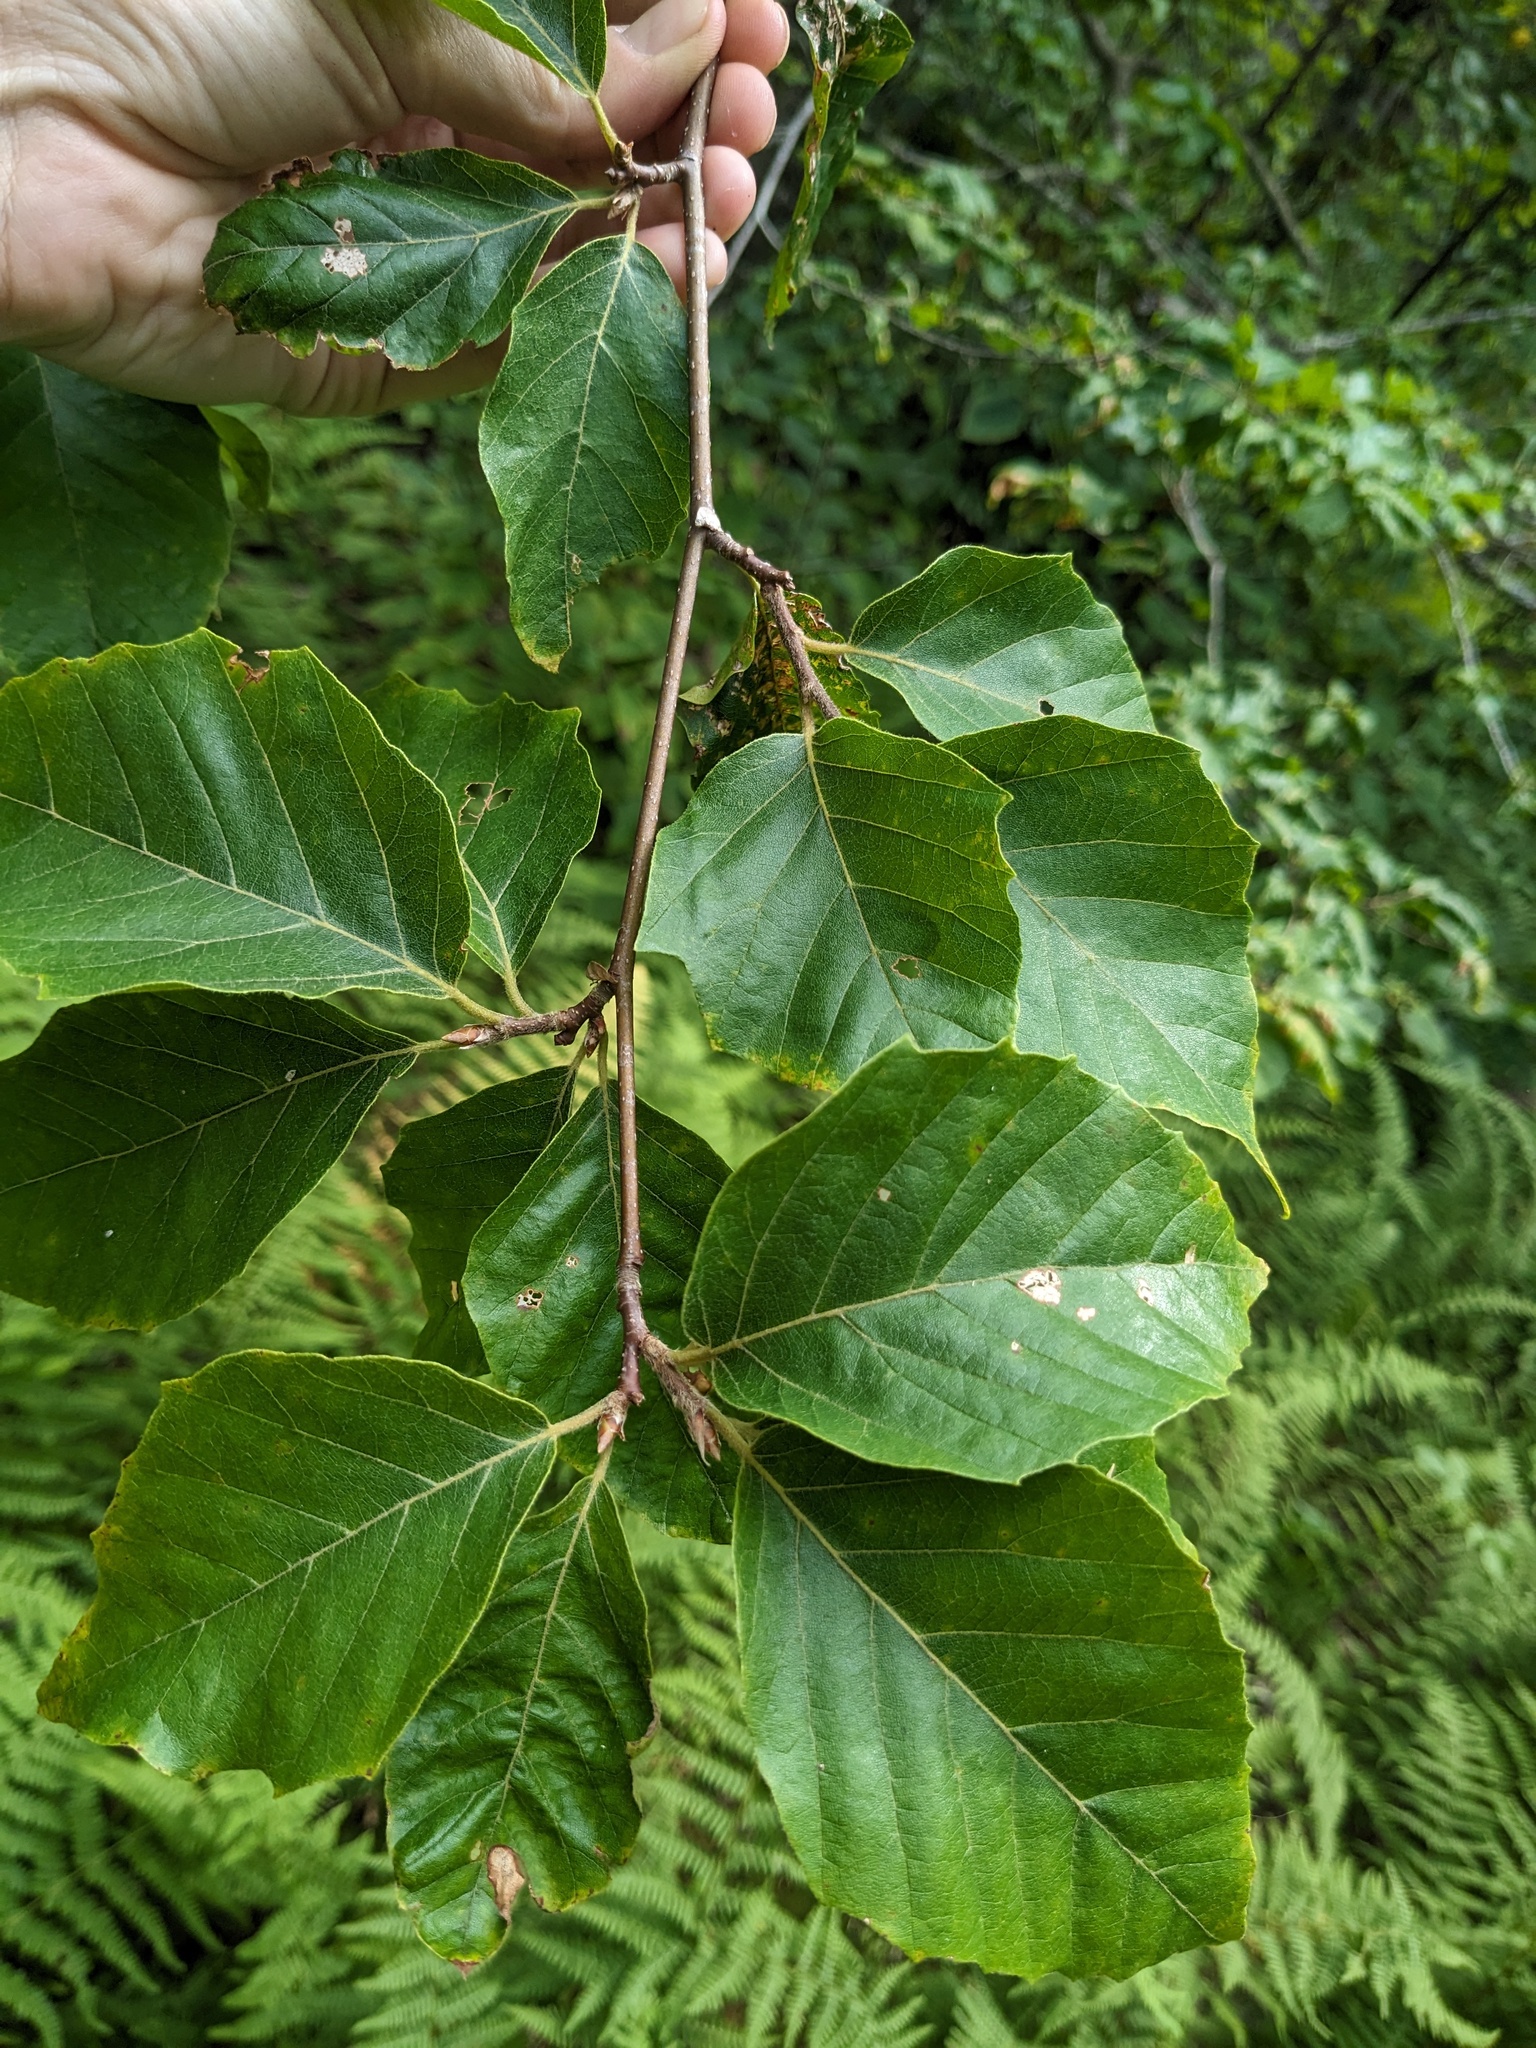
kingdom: Plantae
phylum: Tracheophyta
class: Magnoliopsida
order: Fagales
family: Fagaceae
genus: Fagus
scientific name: Fagus grandifolia
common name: American beech
